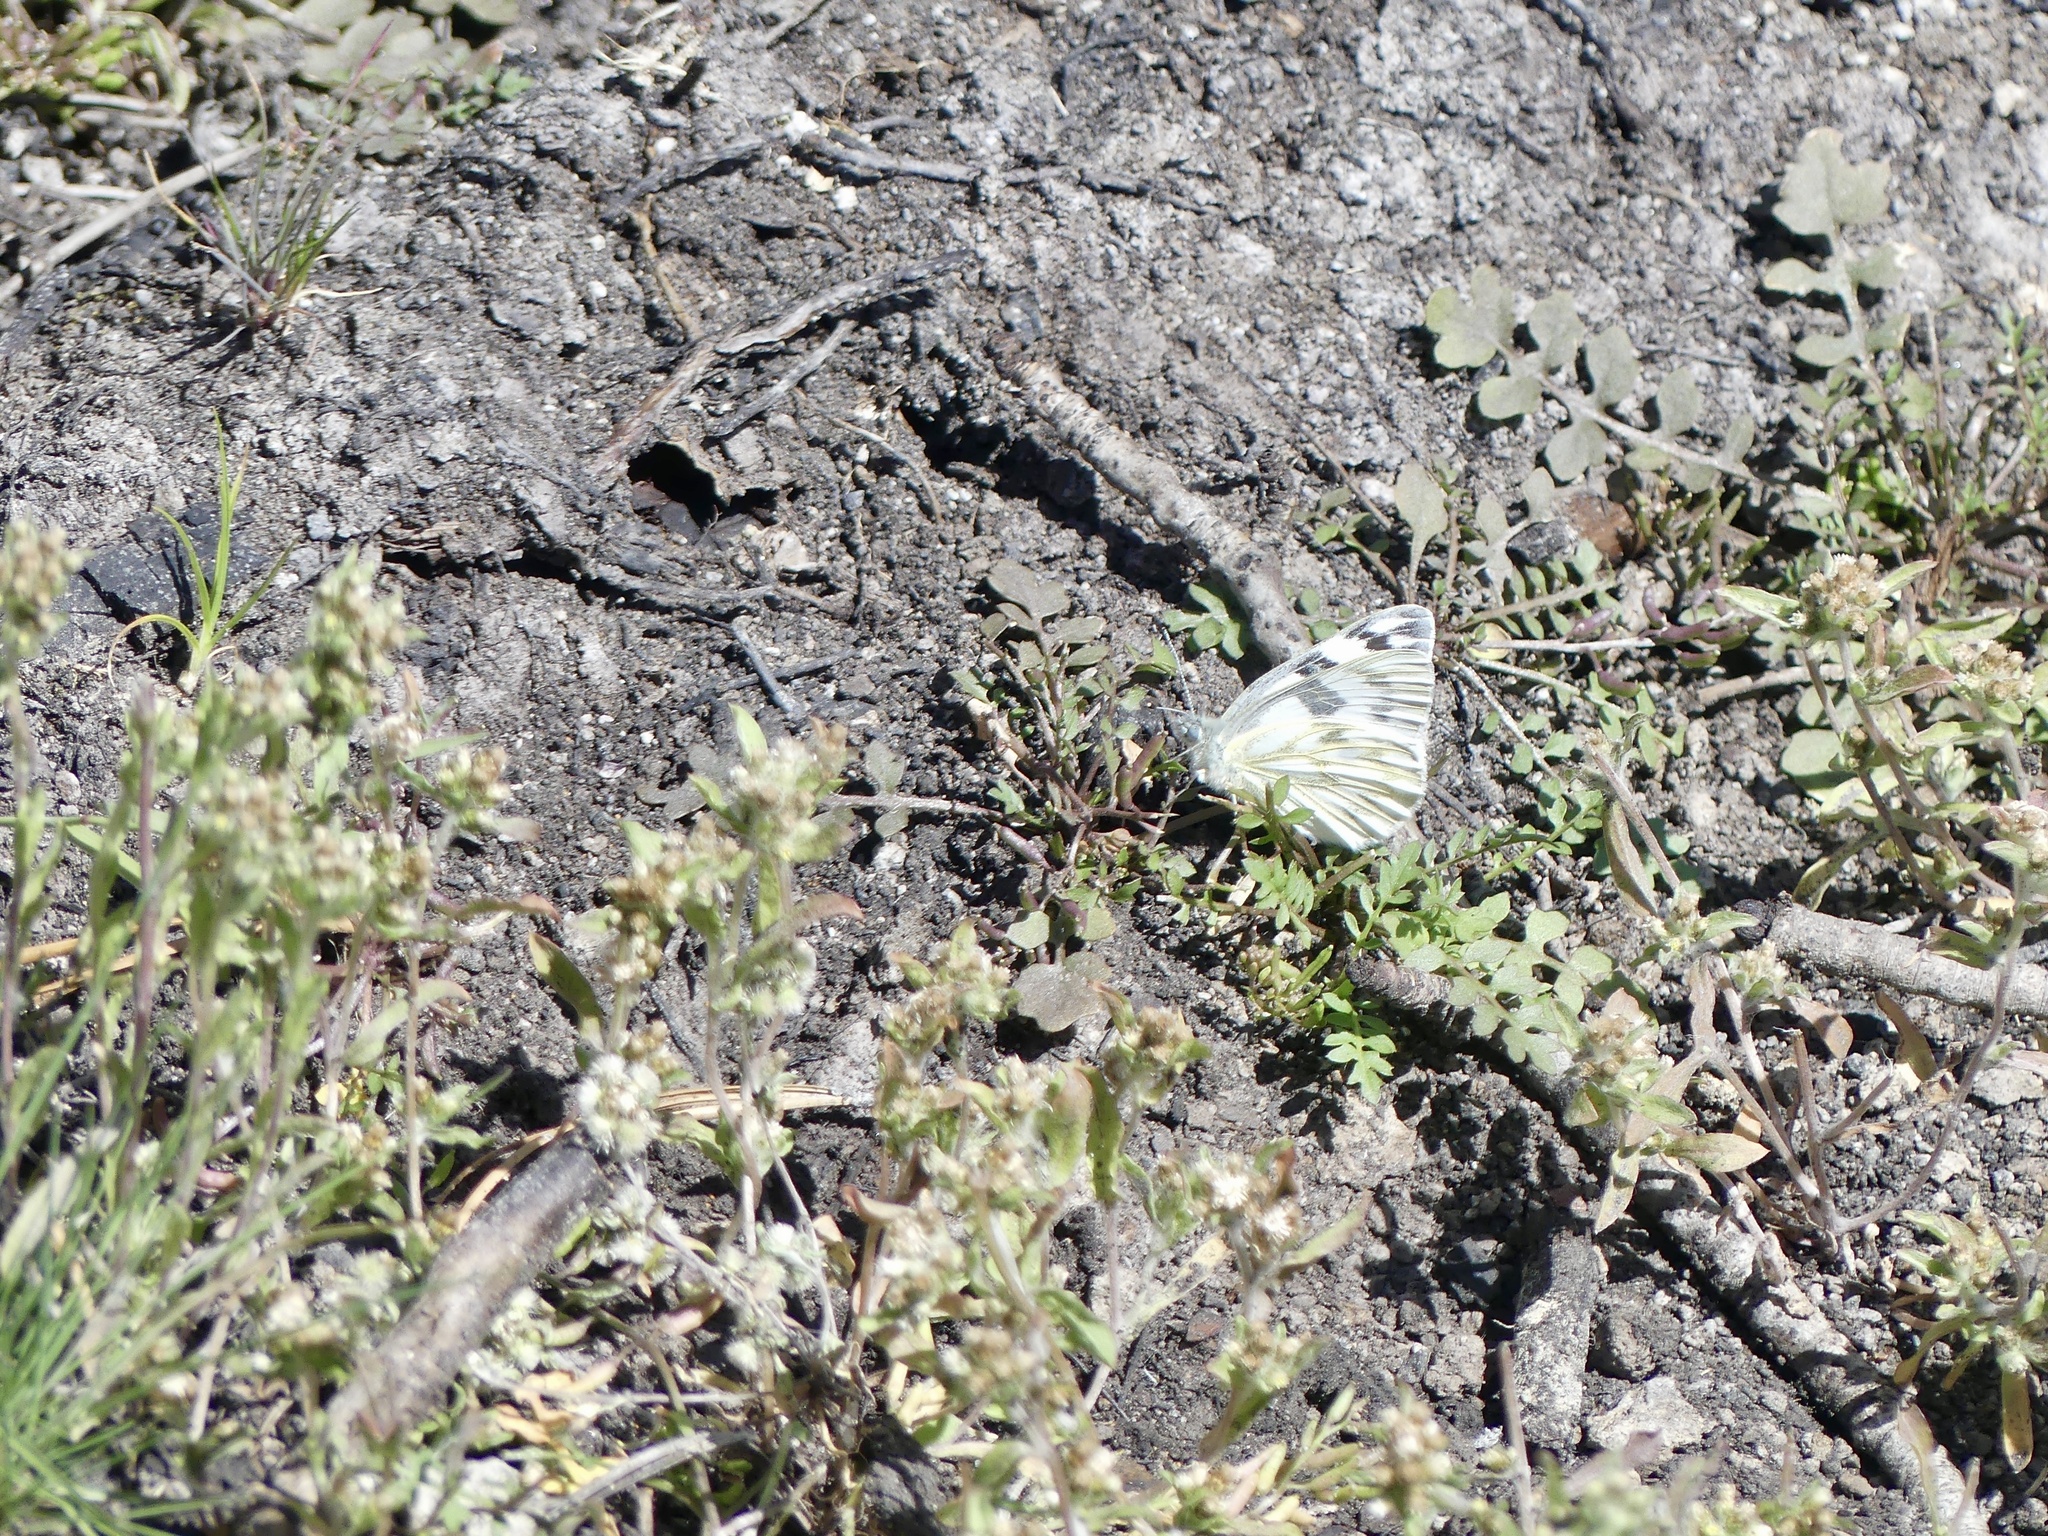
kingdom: Animalia
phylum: Arthropoda
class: Insecta
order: Lepidoptera
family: Pieridae
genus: Pontia
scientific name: Pontia occidentalis
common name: Western white
